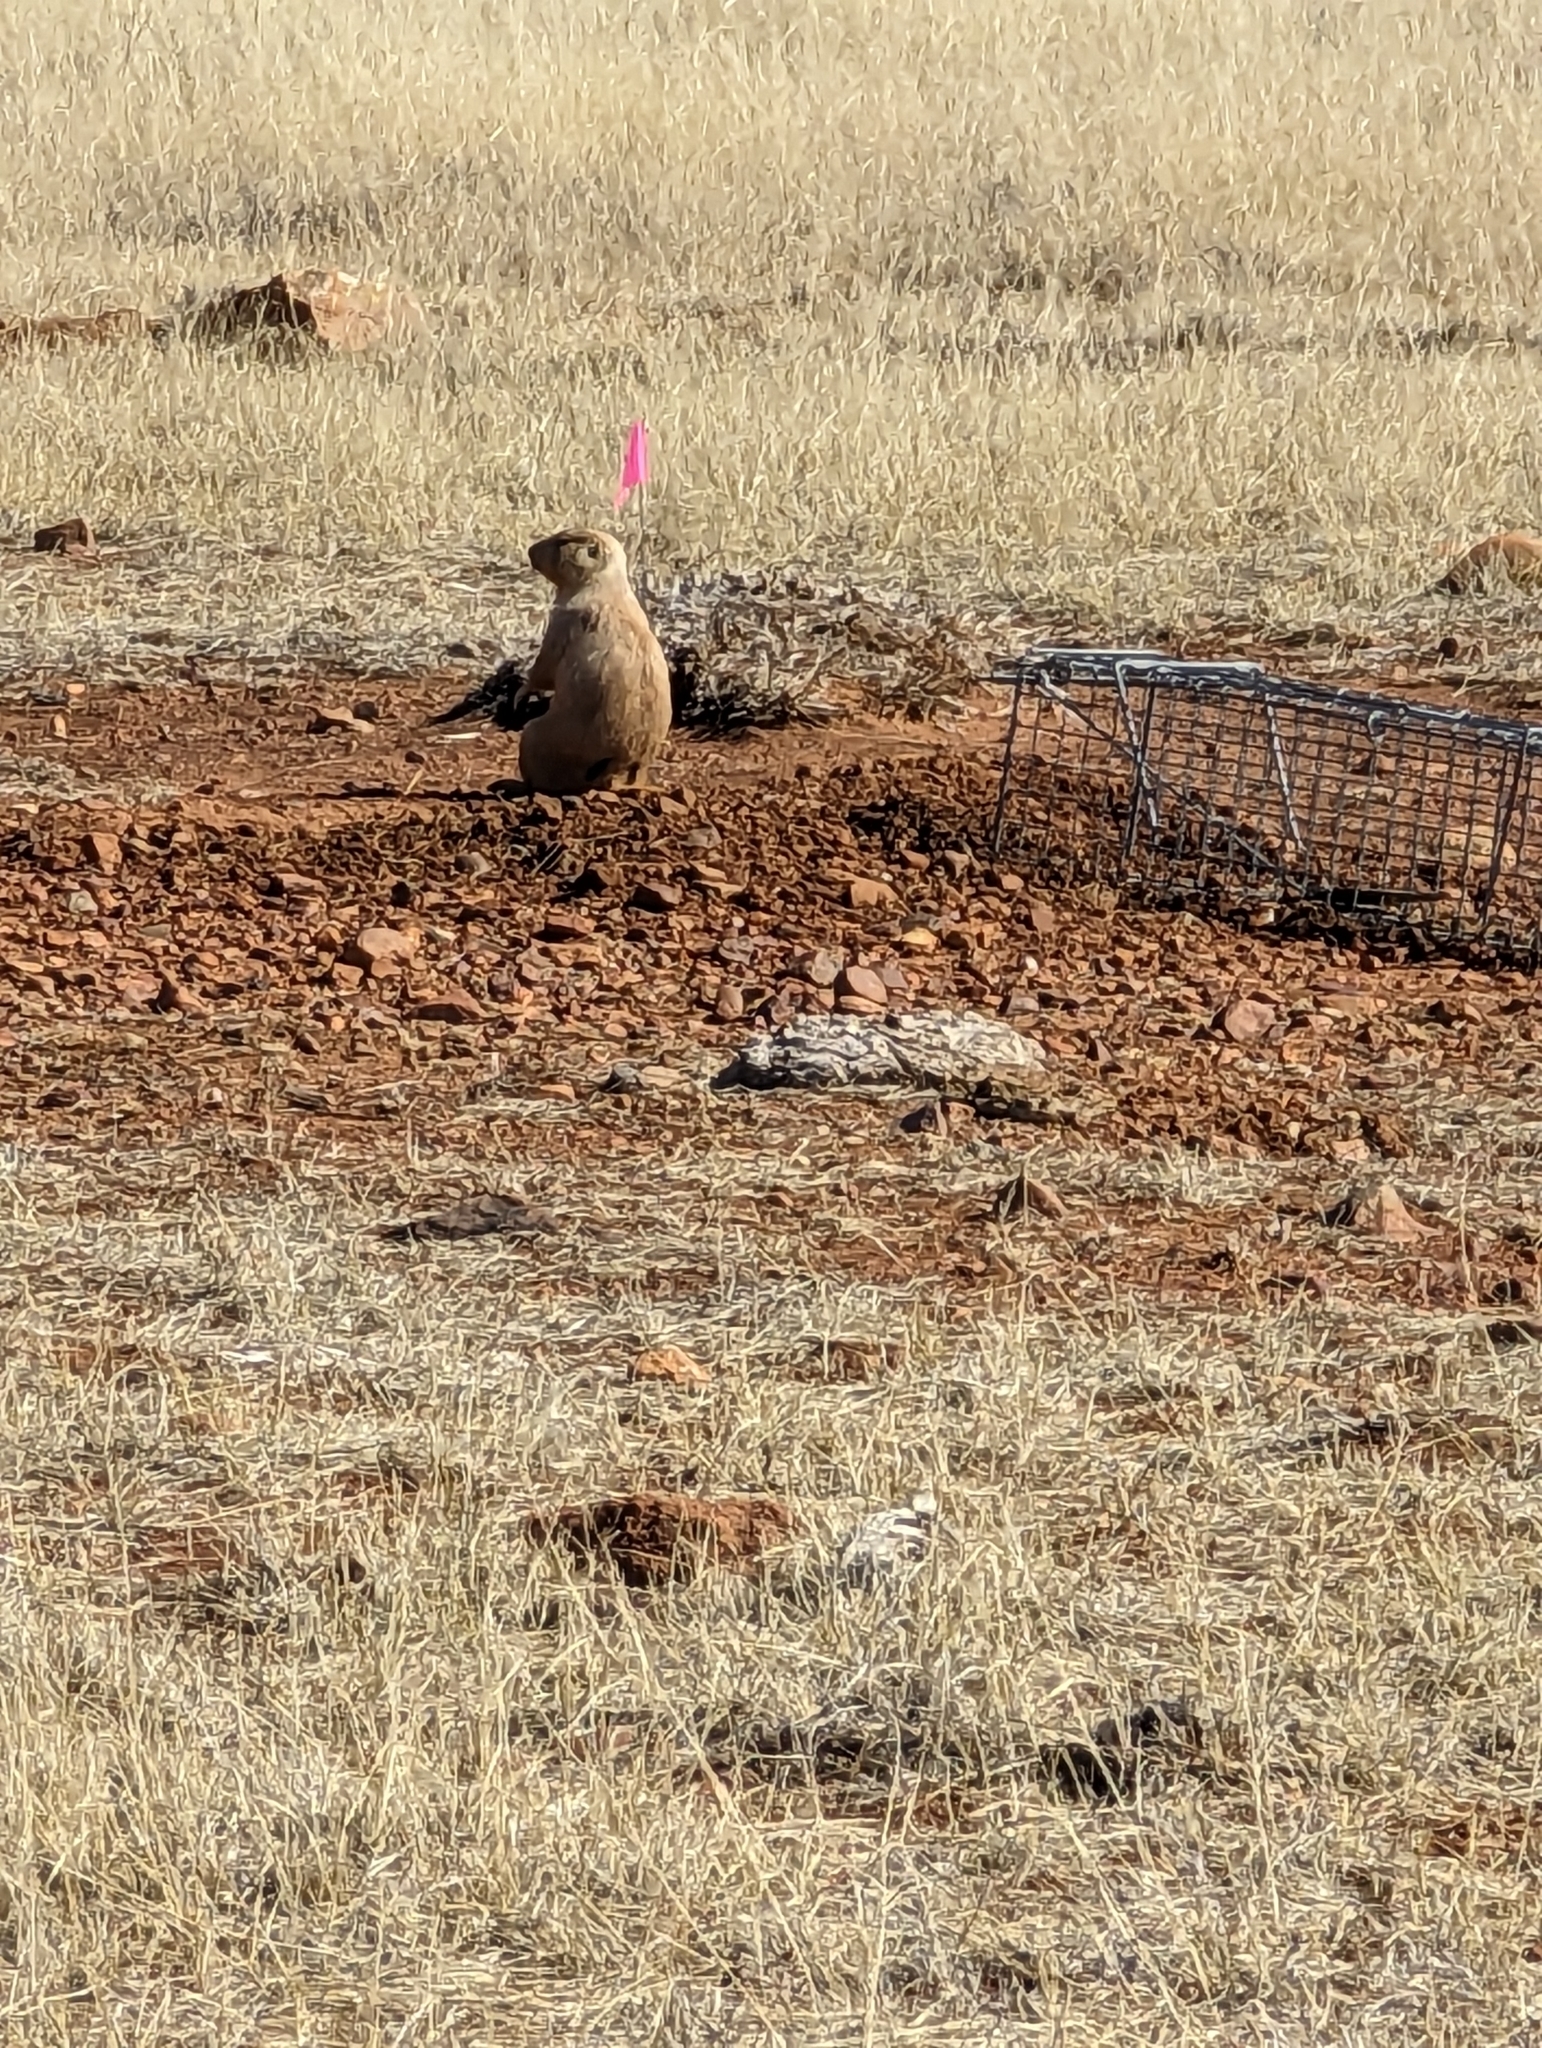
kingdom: Animalia
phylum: Chordata
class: Mammalia
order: Rodentia
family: Sciuridae
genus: Cynomys
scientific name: Cynomys ludovicianus
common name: Black-tailed prairie dog
